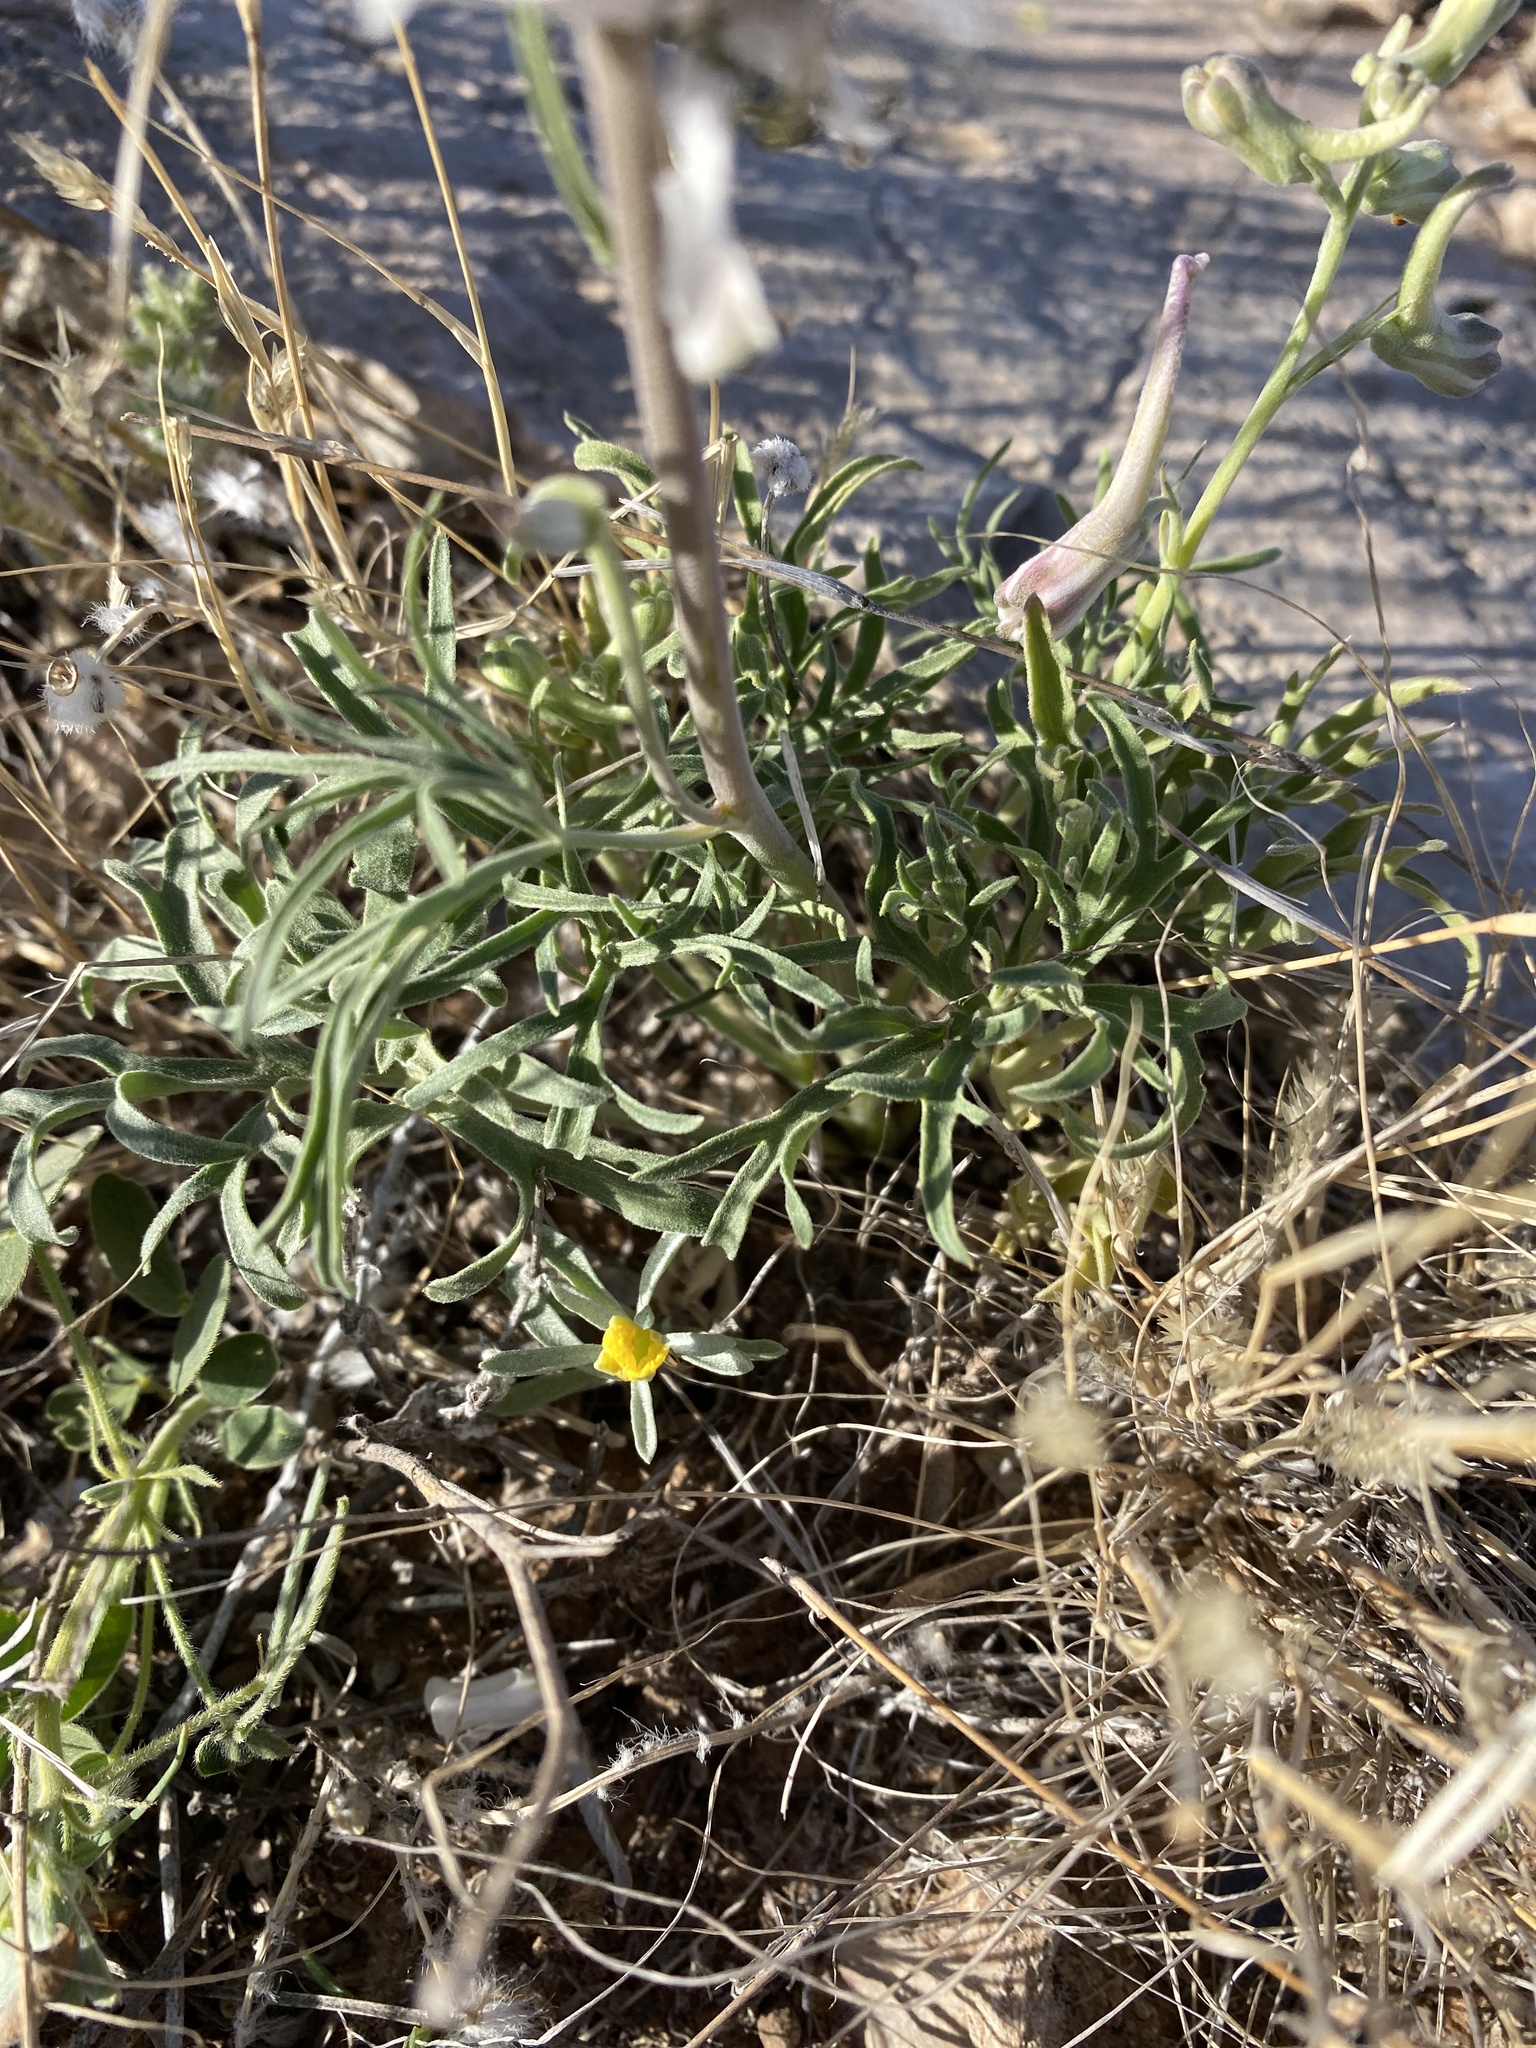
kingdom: Plantae
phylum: Tracheophyta
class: Magnoliopsida
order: Ranunculales
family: Ranunculaceae
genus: Delphinium
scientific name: Delphinium wootonii
